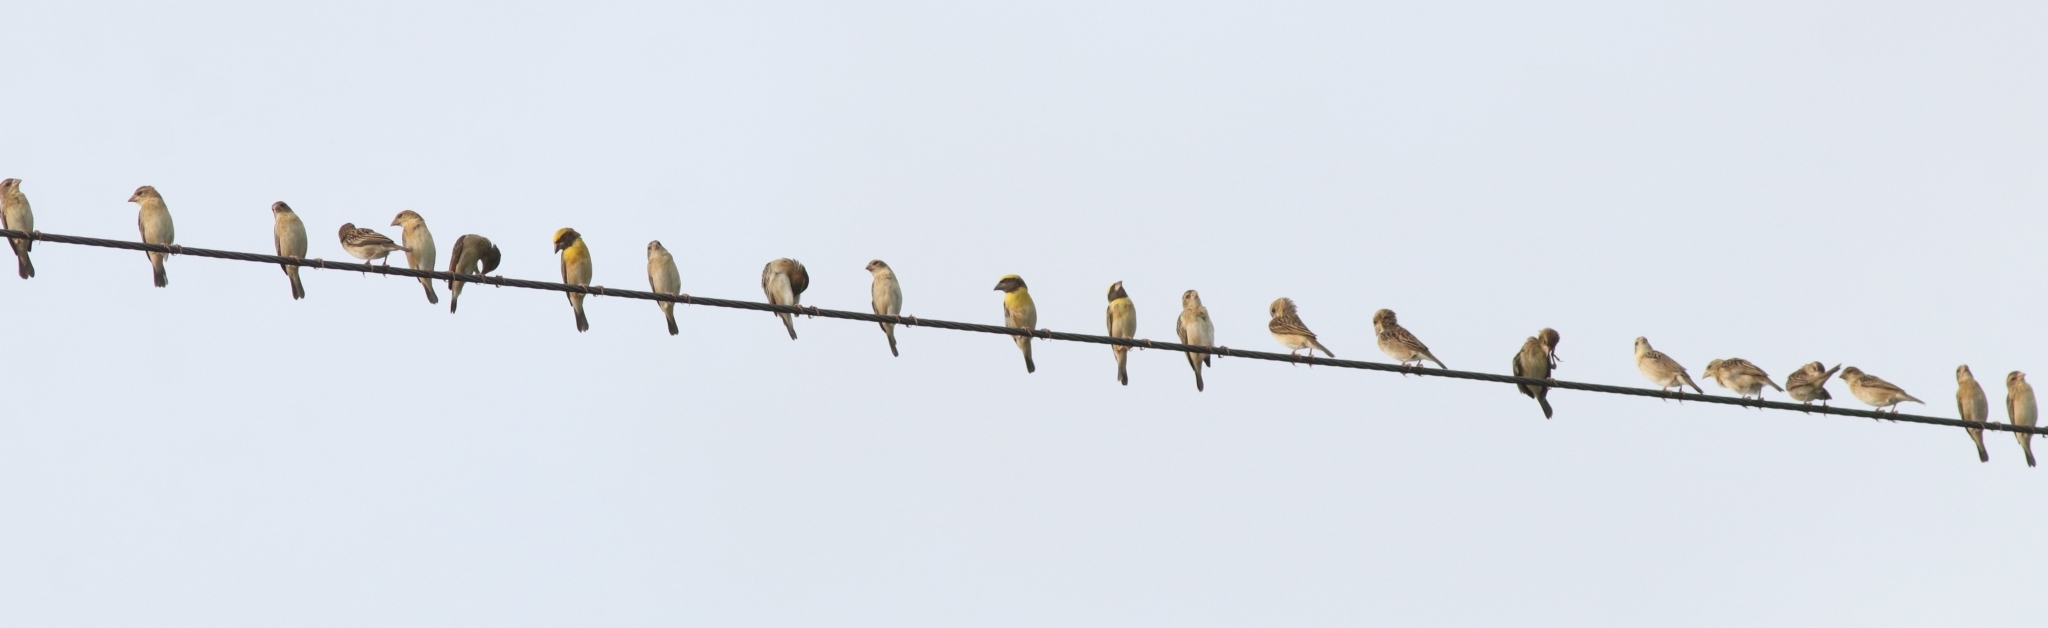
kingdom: Animalia
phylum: Chordata
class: Aves
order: Passeriformes
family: Ploceidae
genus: Ploceus
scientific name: Ploceus philippinus
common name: Baya weaver
